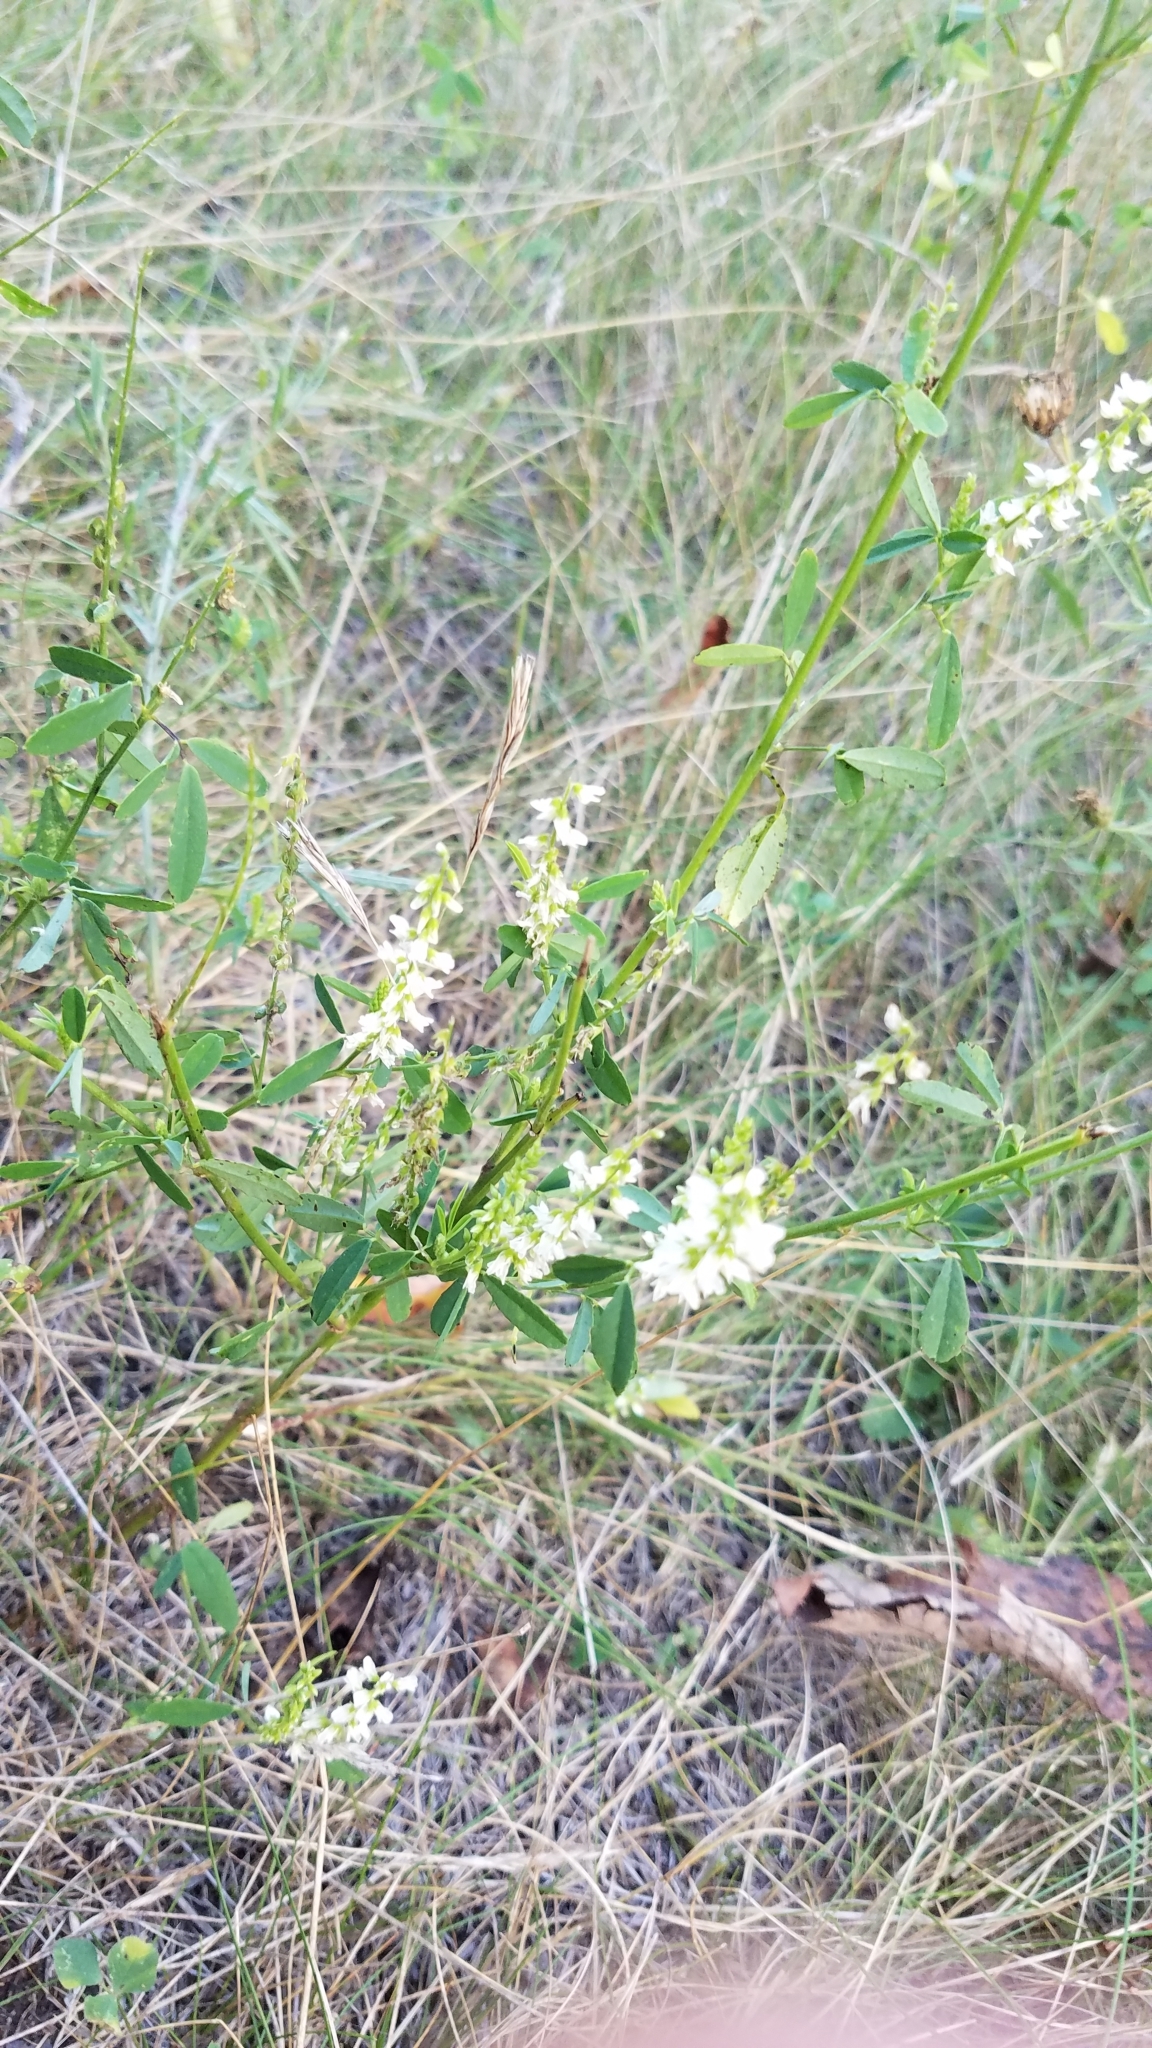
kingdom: Plantae
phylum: Tracheophyta
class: Magnoliopsida
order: Fabales
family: Fabaceae
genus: Melilotus
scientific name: Melilotus albus
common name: White melilot
